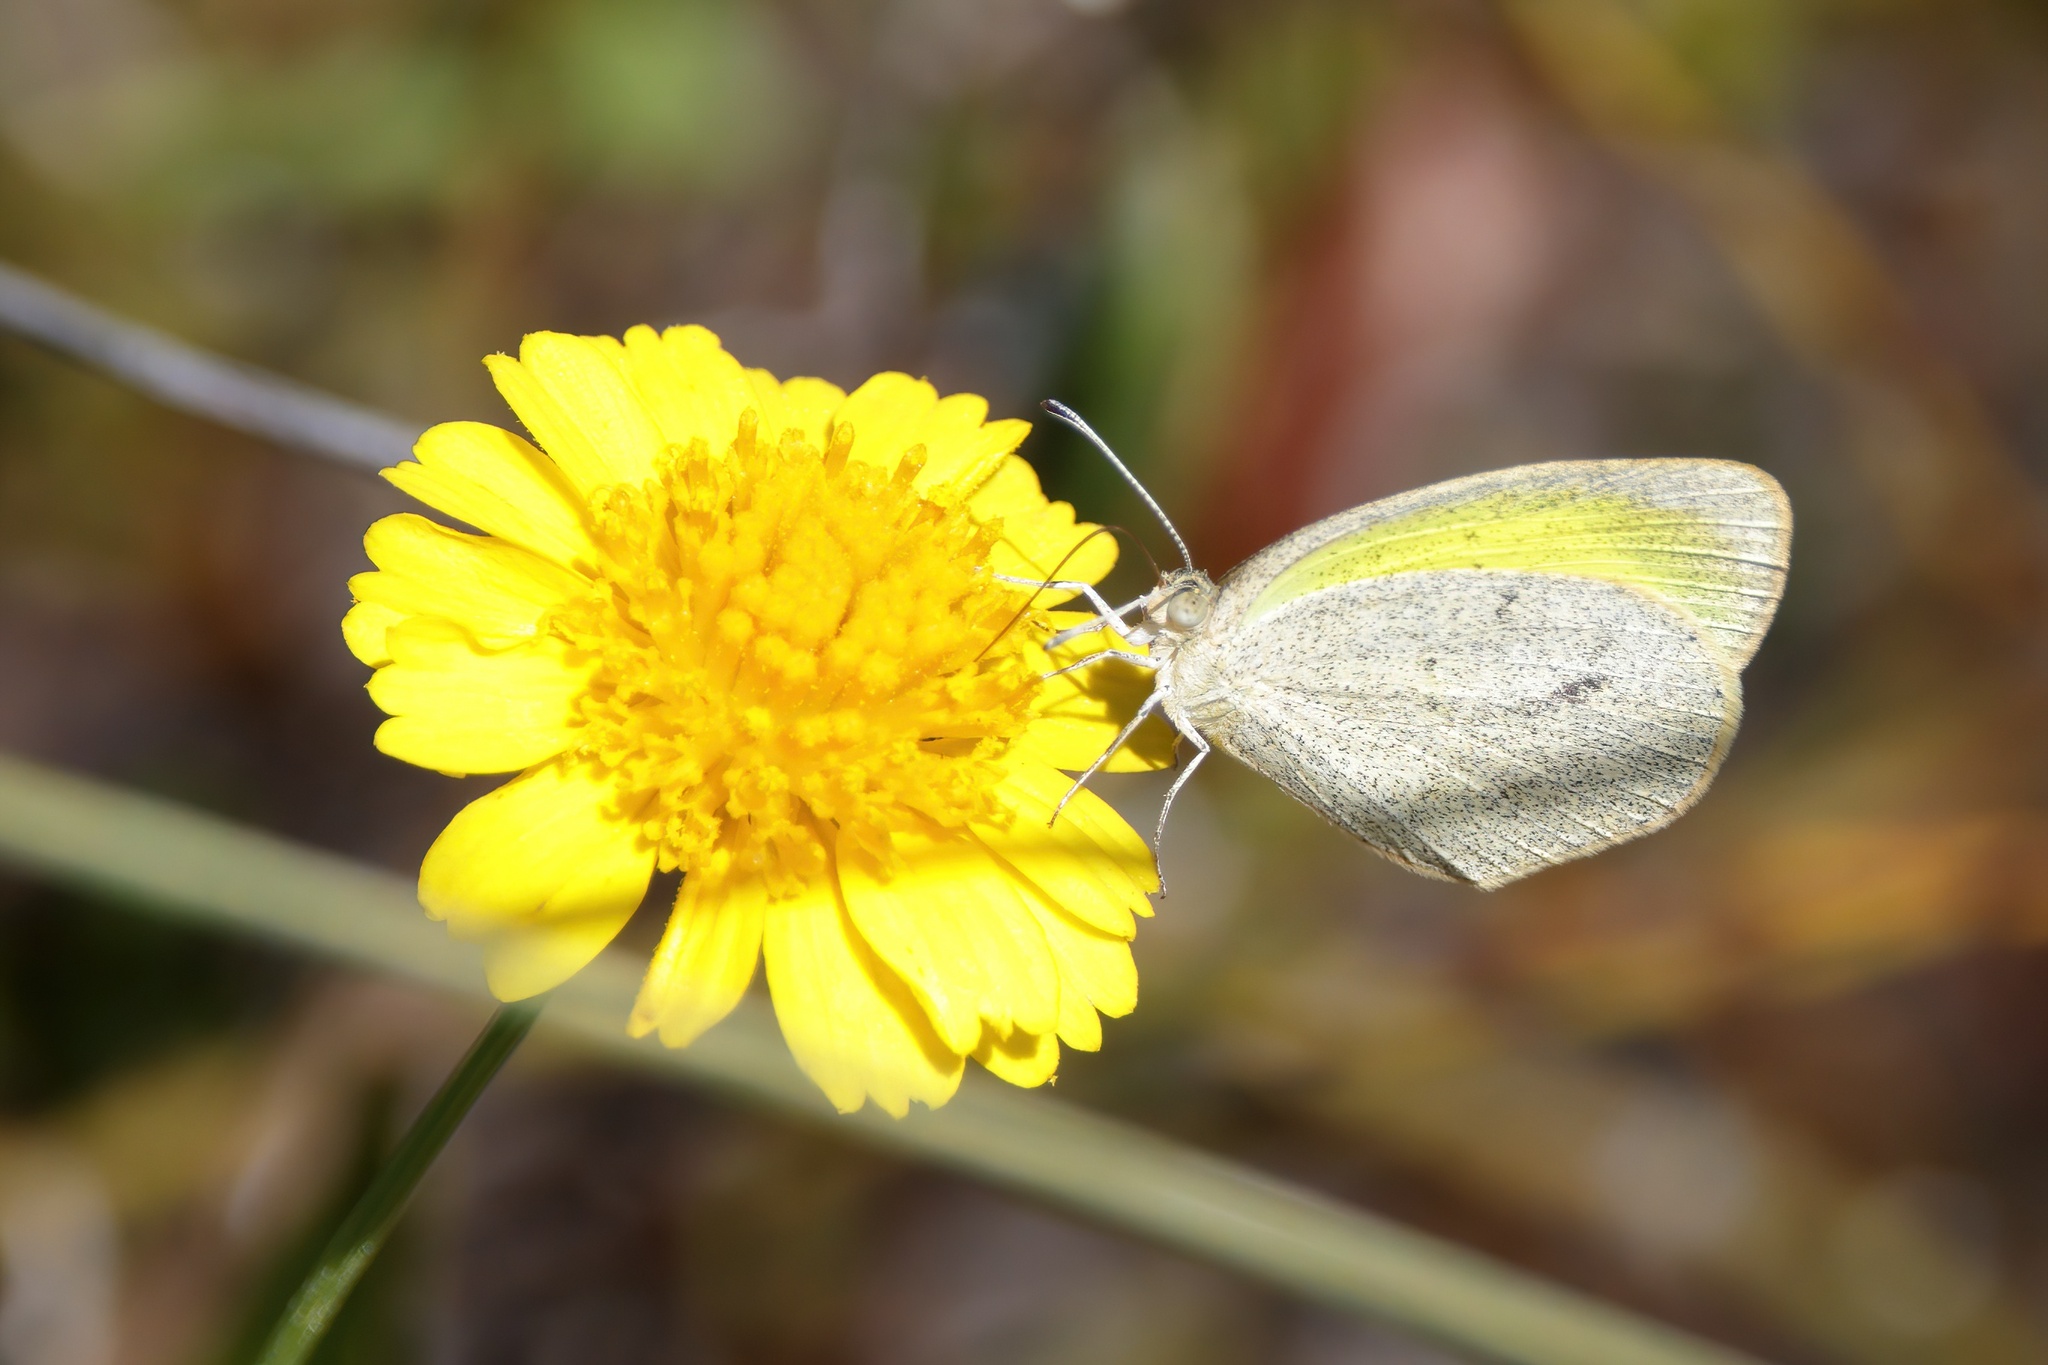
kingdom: Animalia
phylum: Arthropoda
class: Insecta
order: Lepidoptera
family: Pieridae
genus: Eurema
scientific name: Eurema daira
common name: Barred sulphur
